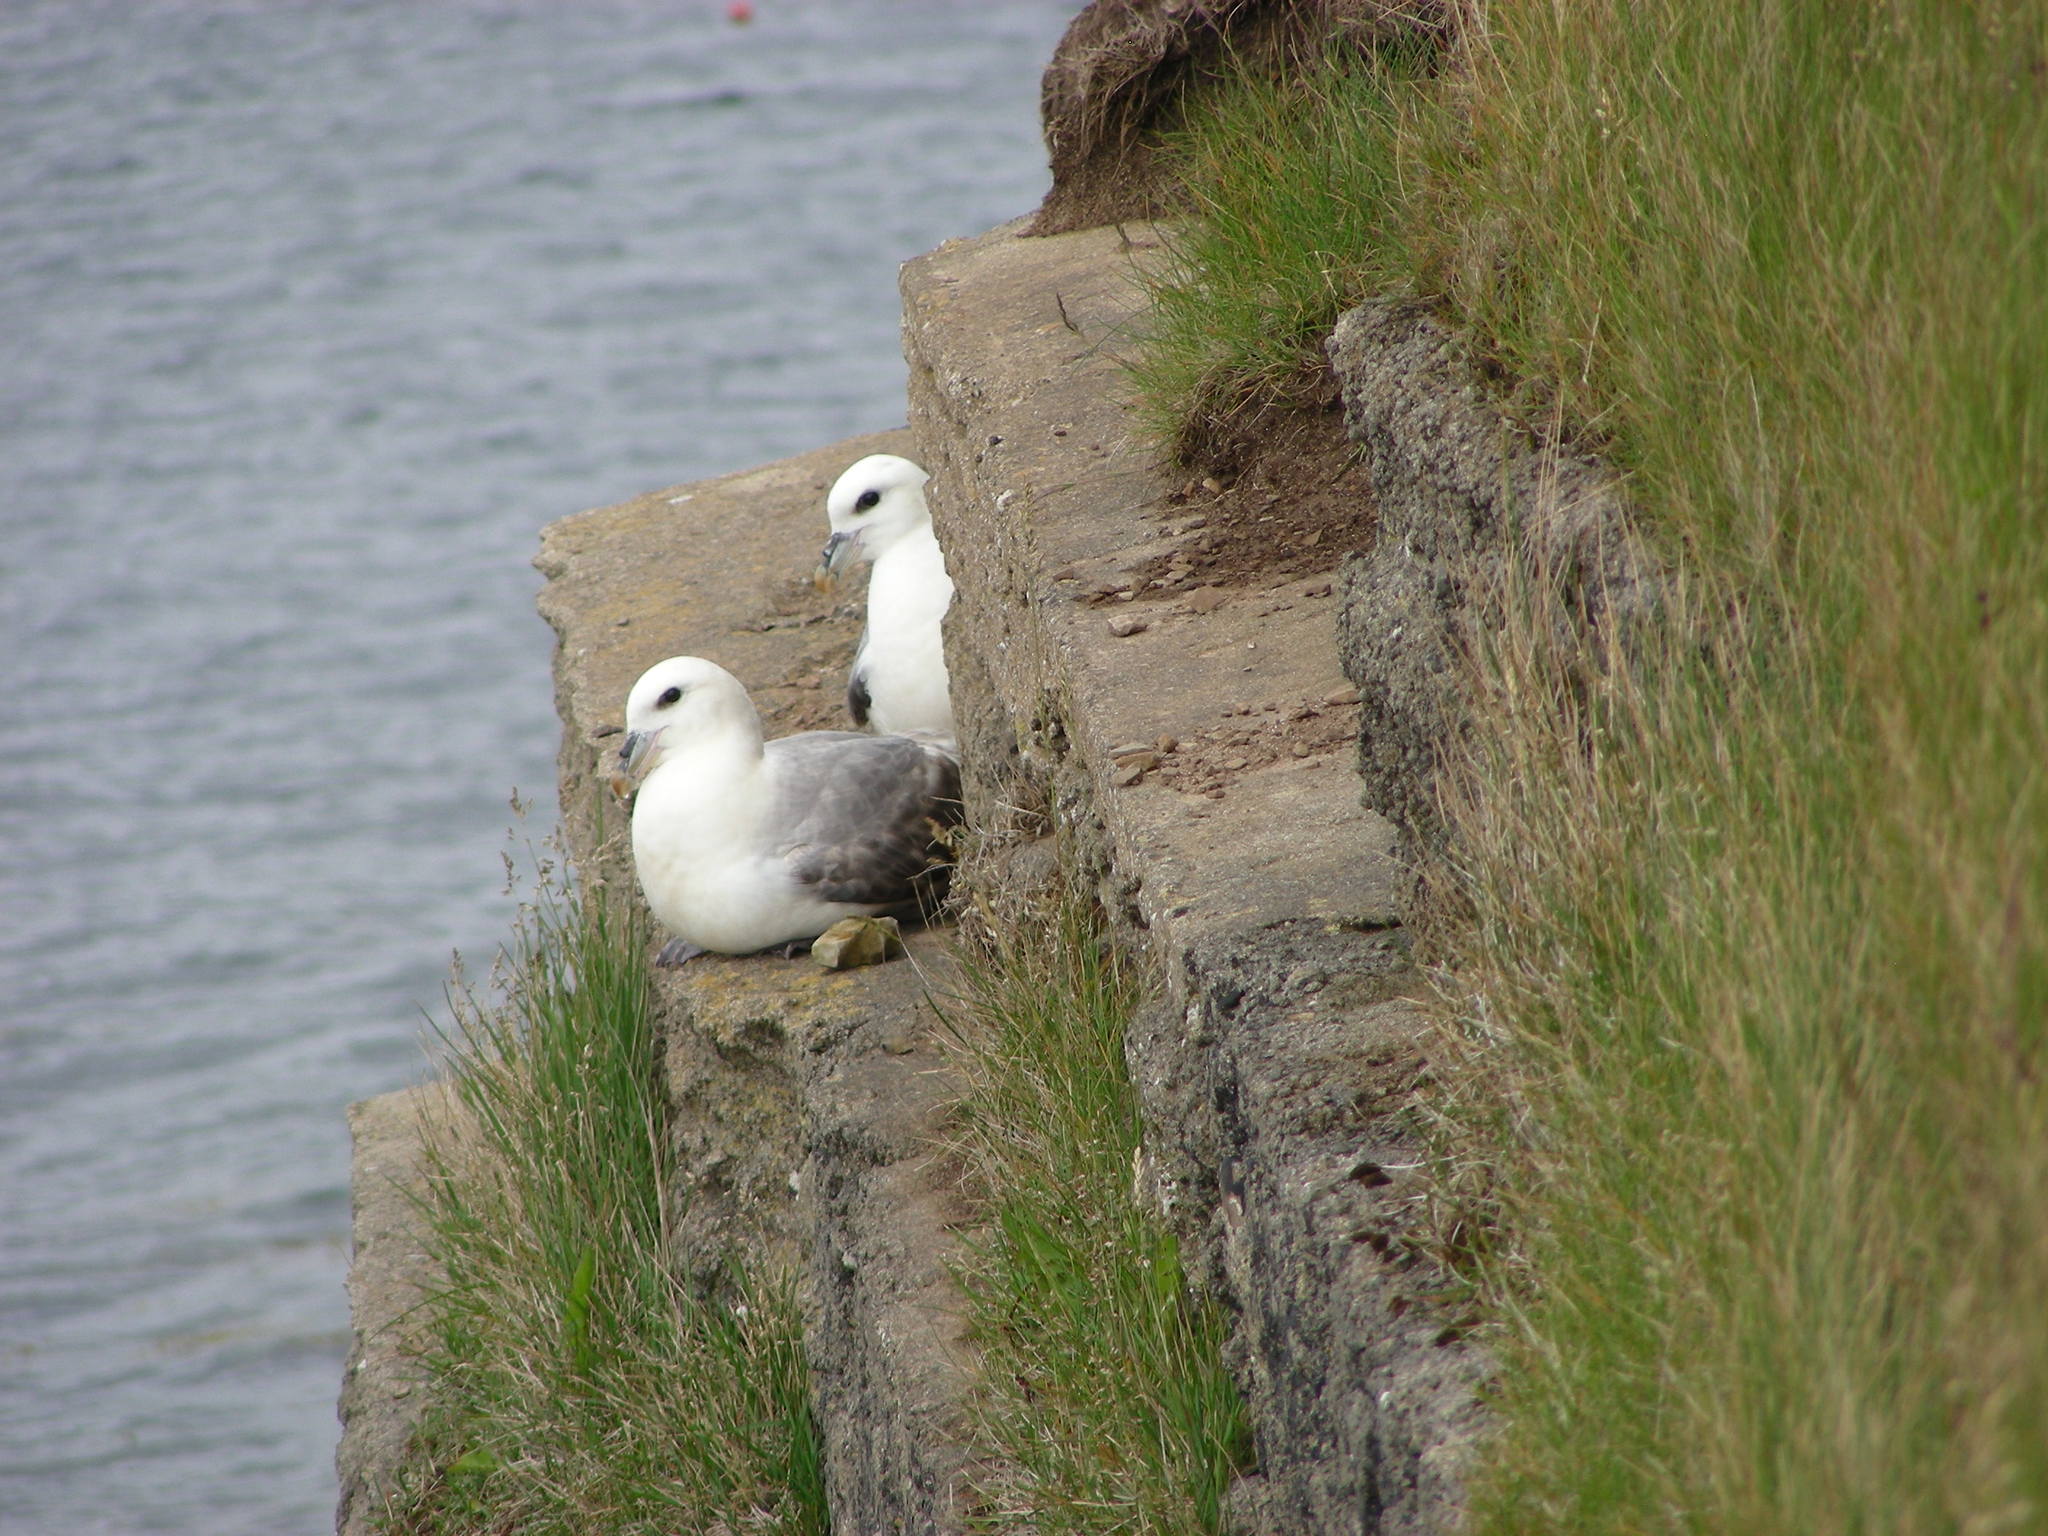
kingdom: Animalia
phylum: Chordata
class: Aves
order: Procellariiformes
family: Procellariidae
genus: Fulmarus
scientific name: Fulmarus glacialis
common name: Northern fulmar
